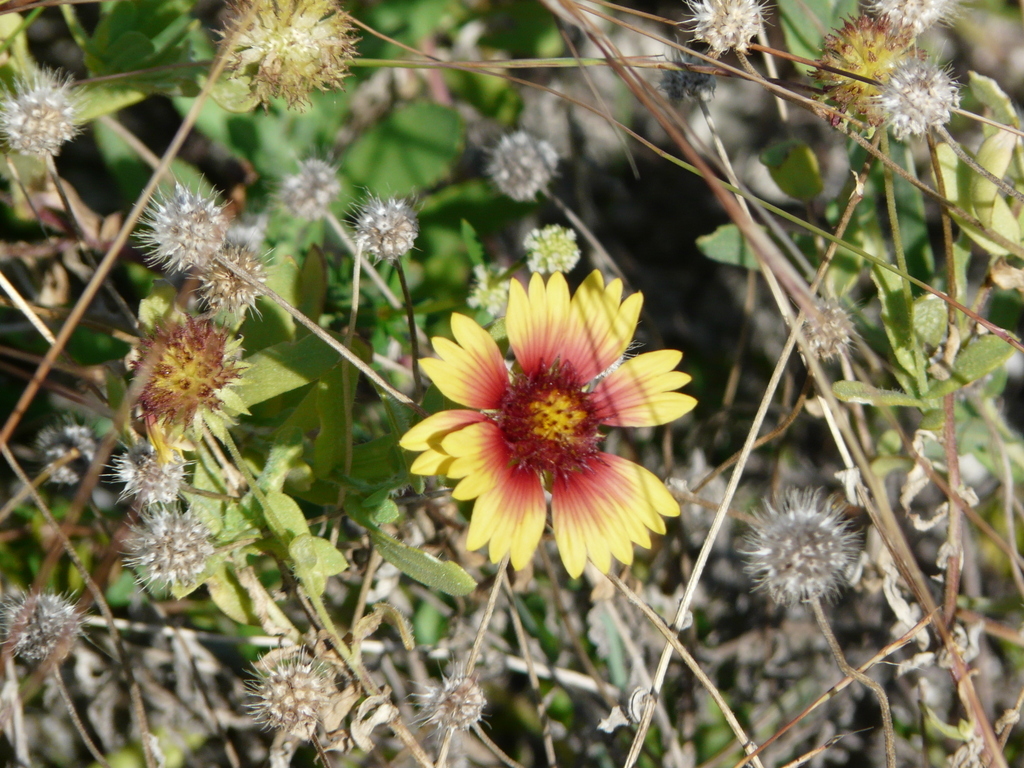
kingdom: Plantae
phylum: Tracheophyta
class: Magnoliopsida
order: Asterales
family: Asteraceae
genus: Gaillardia
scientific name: Gaillardia pulchella
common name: Firewheel
